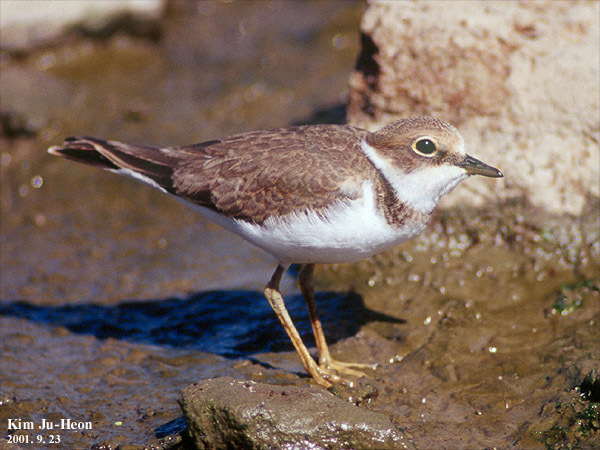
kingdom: Animalia
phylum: Chordata
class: Aves
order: Charadriiformes
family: Charadriidae
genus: Charadrius
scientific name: Charadrius dubius
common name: Little ringed plover
